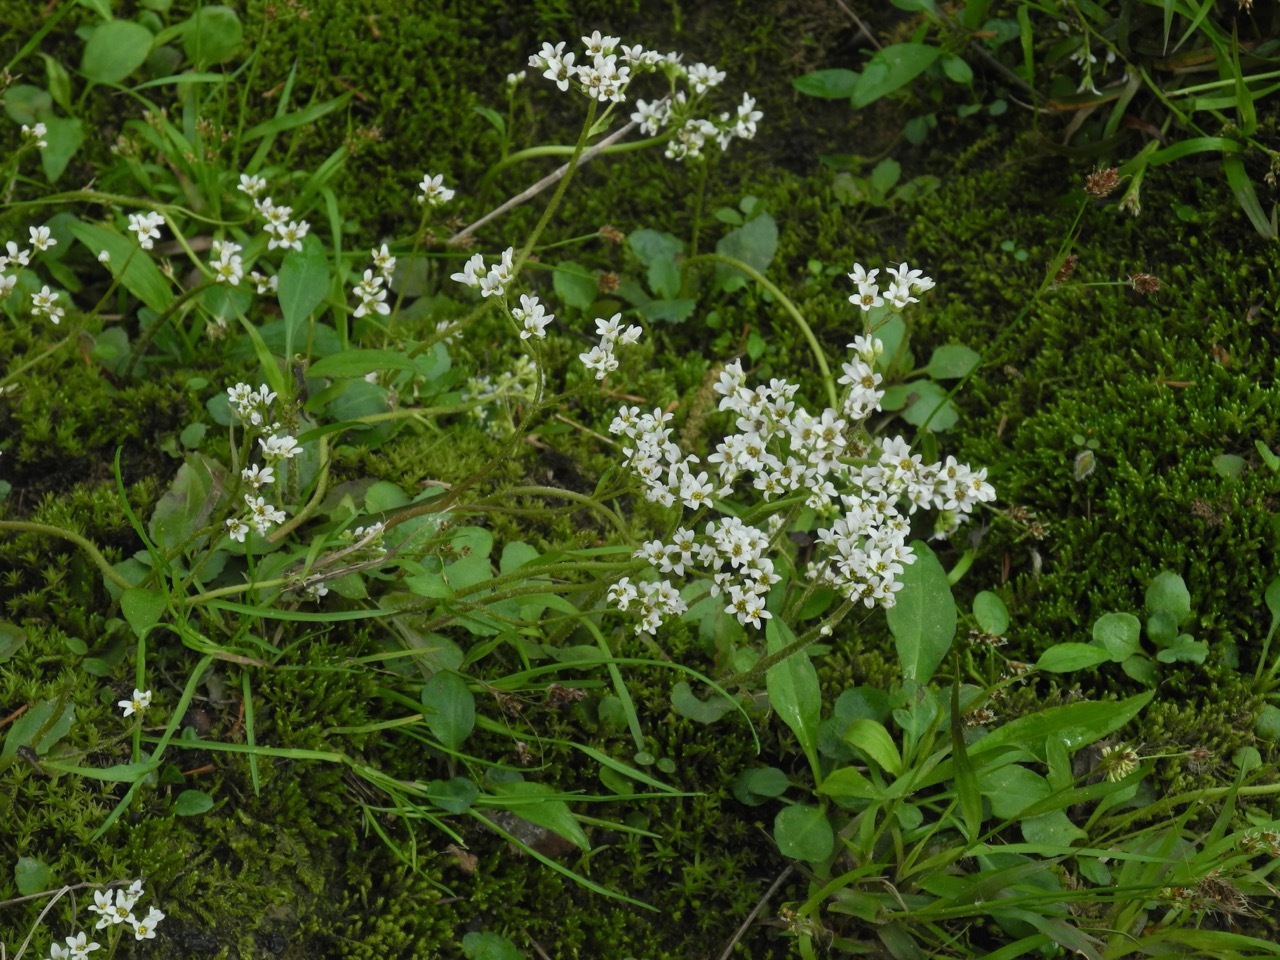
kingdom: Plantae
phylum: Tracheophyta
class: Magnoliopsida
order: Saxifragales
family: Saxifragaceae
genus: Micranthes
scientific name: Micranthes virginiensis
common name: Early saxifrage
